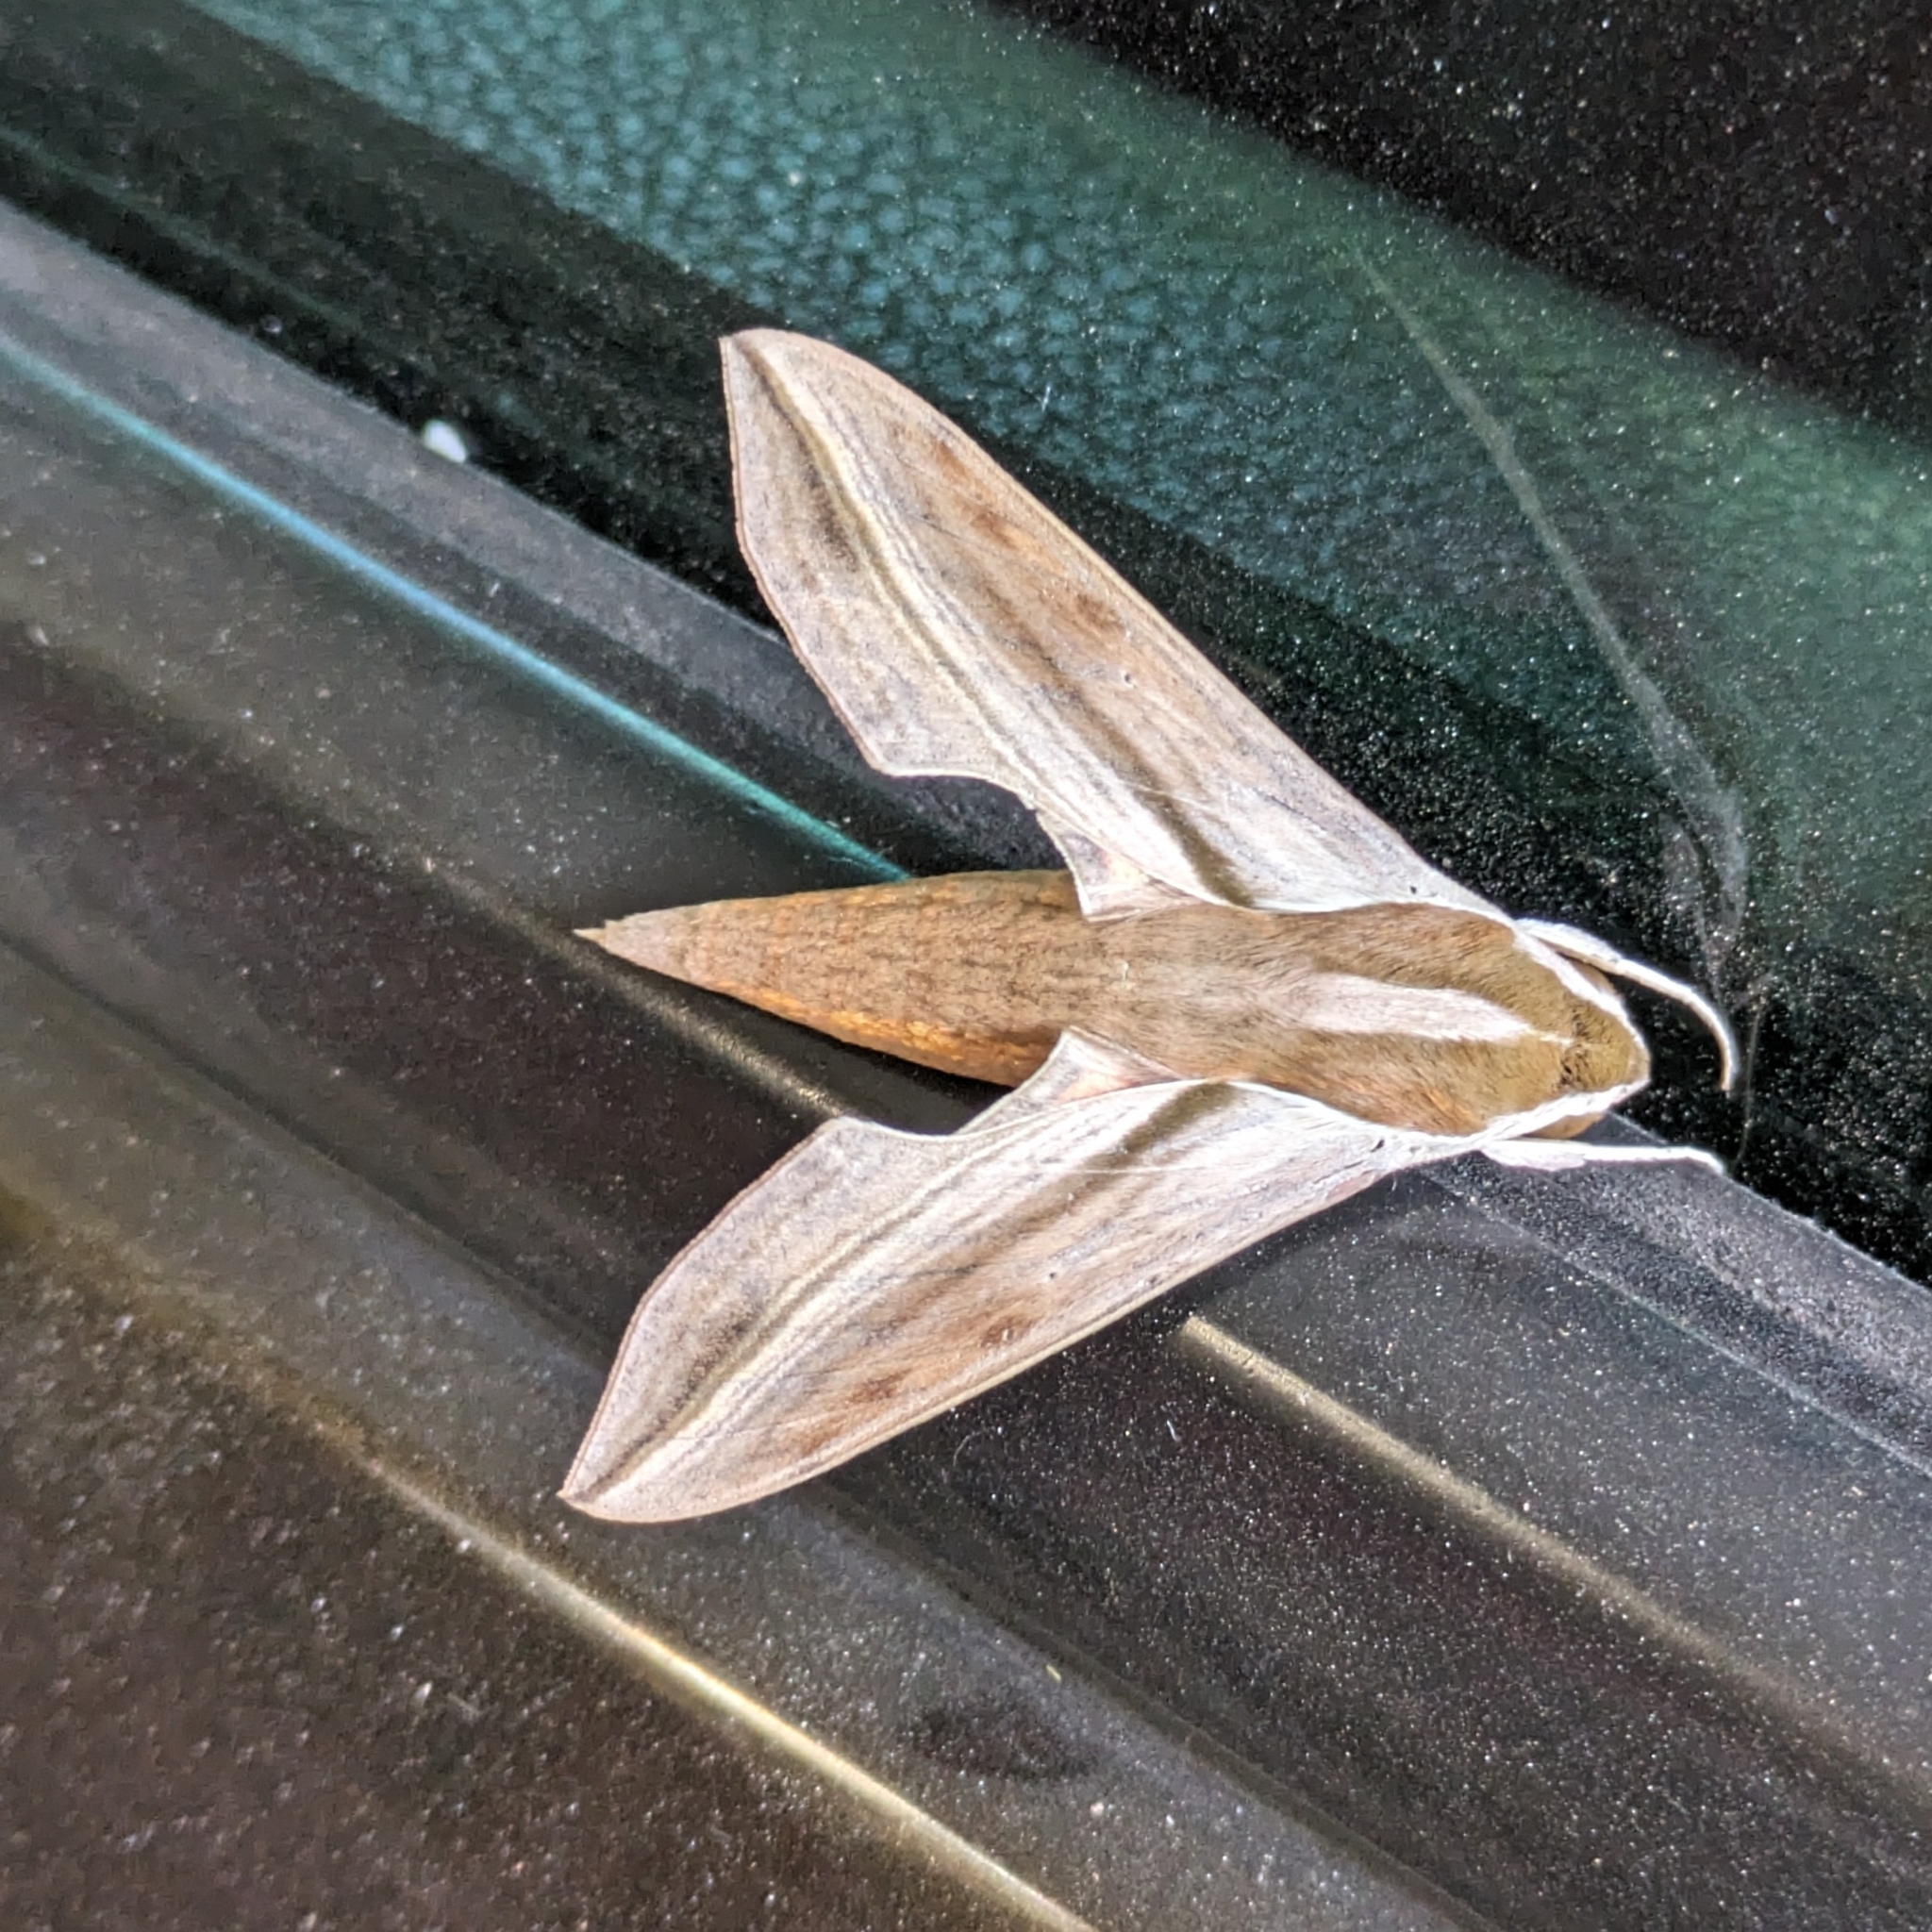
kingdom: Animalia
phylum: Arthropoda
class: Insecta
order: Lepidoptera
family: Sphingidae
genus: Hippotion
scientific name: Hippotion rosetta
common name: Vine hawk moth
